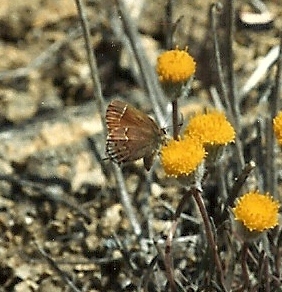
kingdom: Animalia
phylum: Arthropoda
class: Insecta
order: Lepidoptera
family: Lycaenidae
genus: Mitoura
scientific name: Mitoura gryneus
